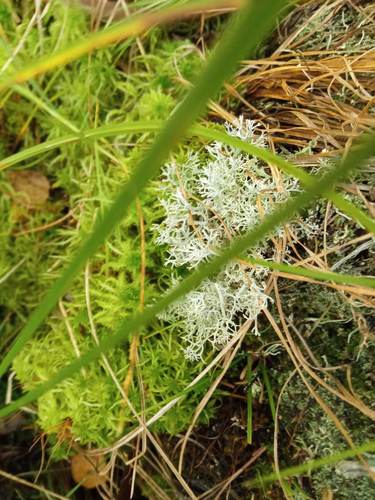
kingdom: Fungi
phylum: Ascomycota
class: Lecanoromycetes
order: Lecanorales
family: Cladoniaceae
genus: Cladonia
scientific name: Cladonia arbuscula
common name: Reindeer lichen
